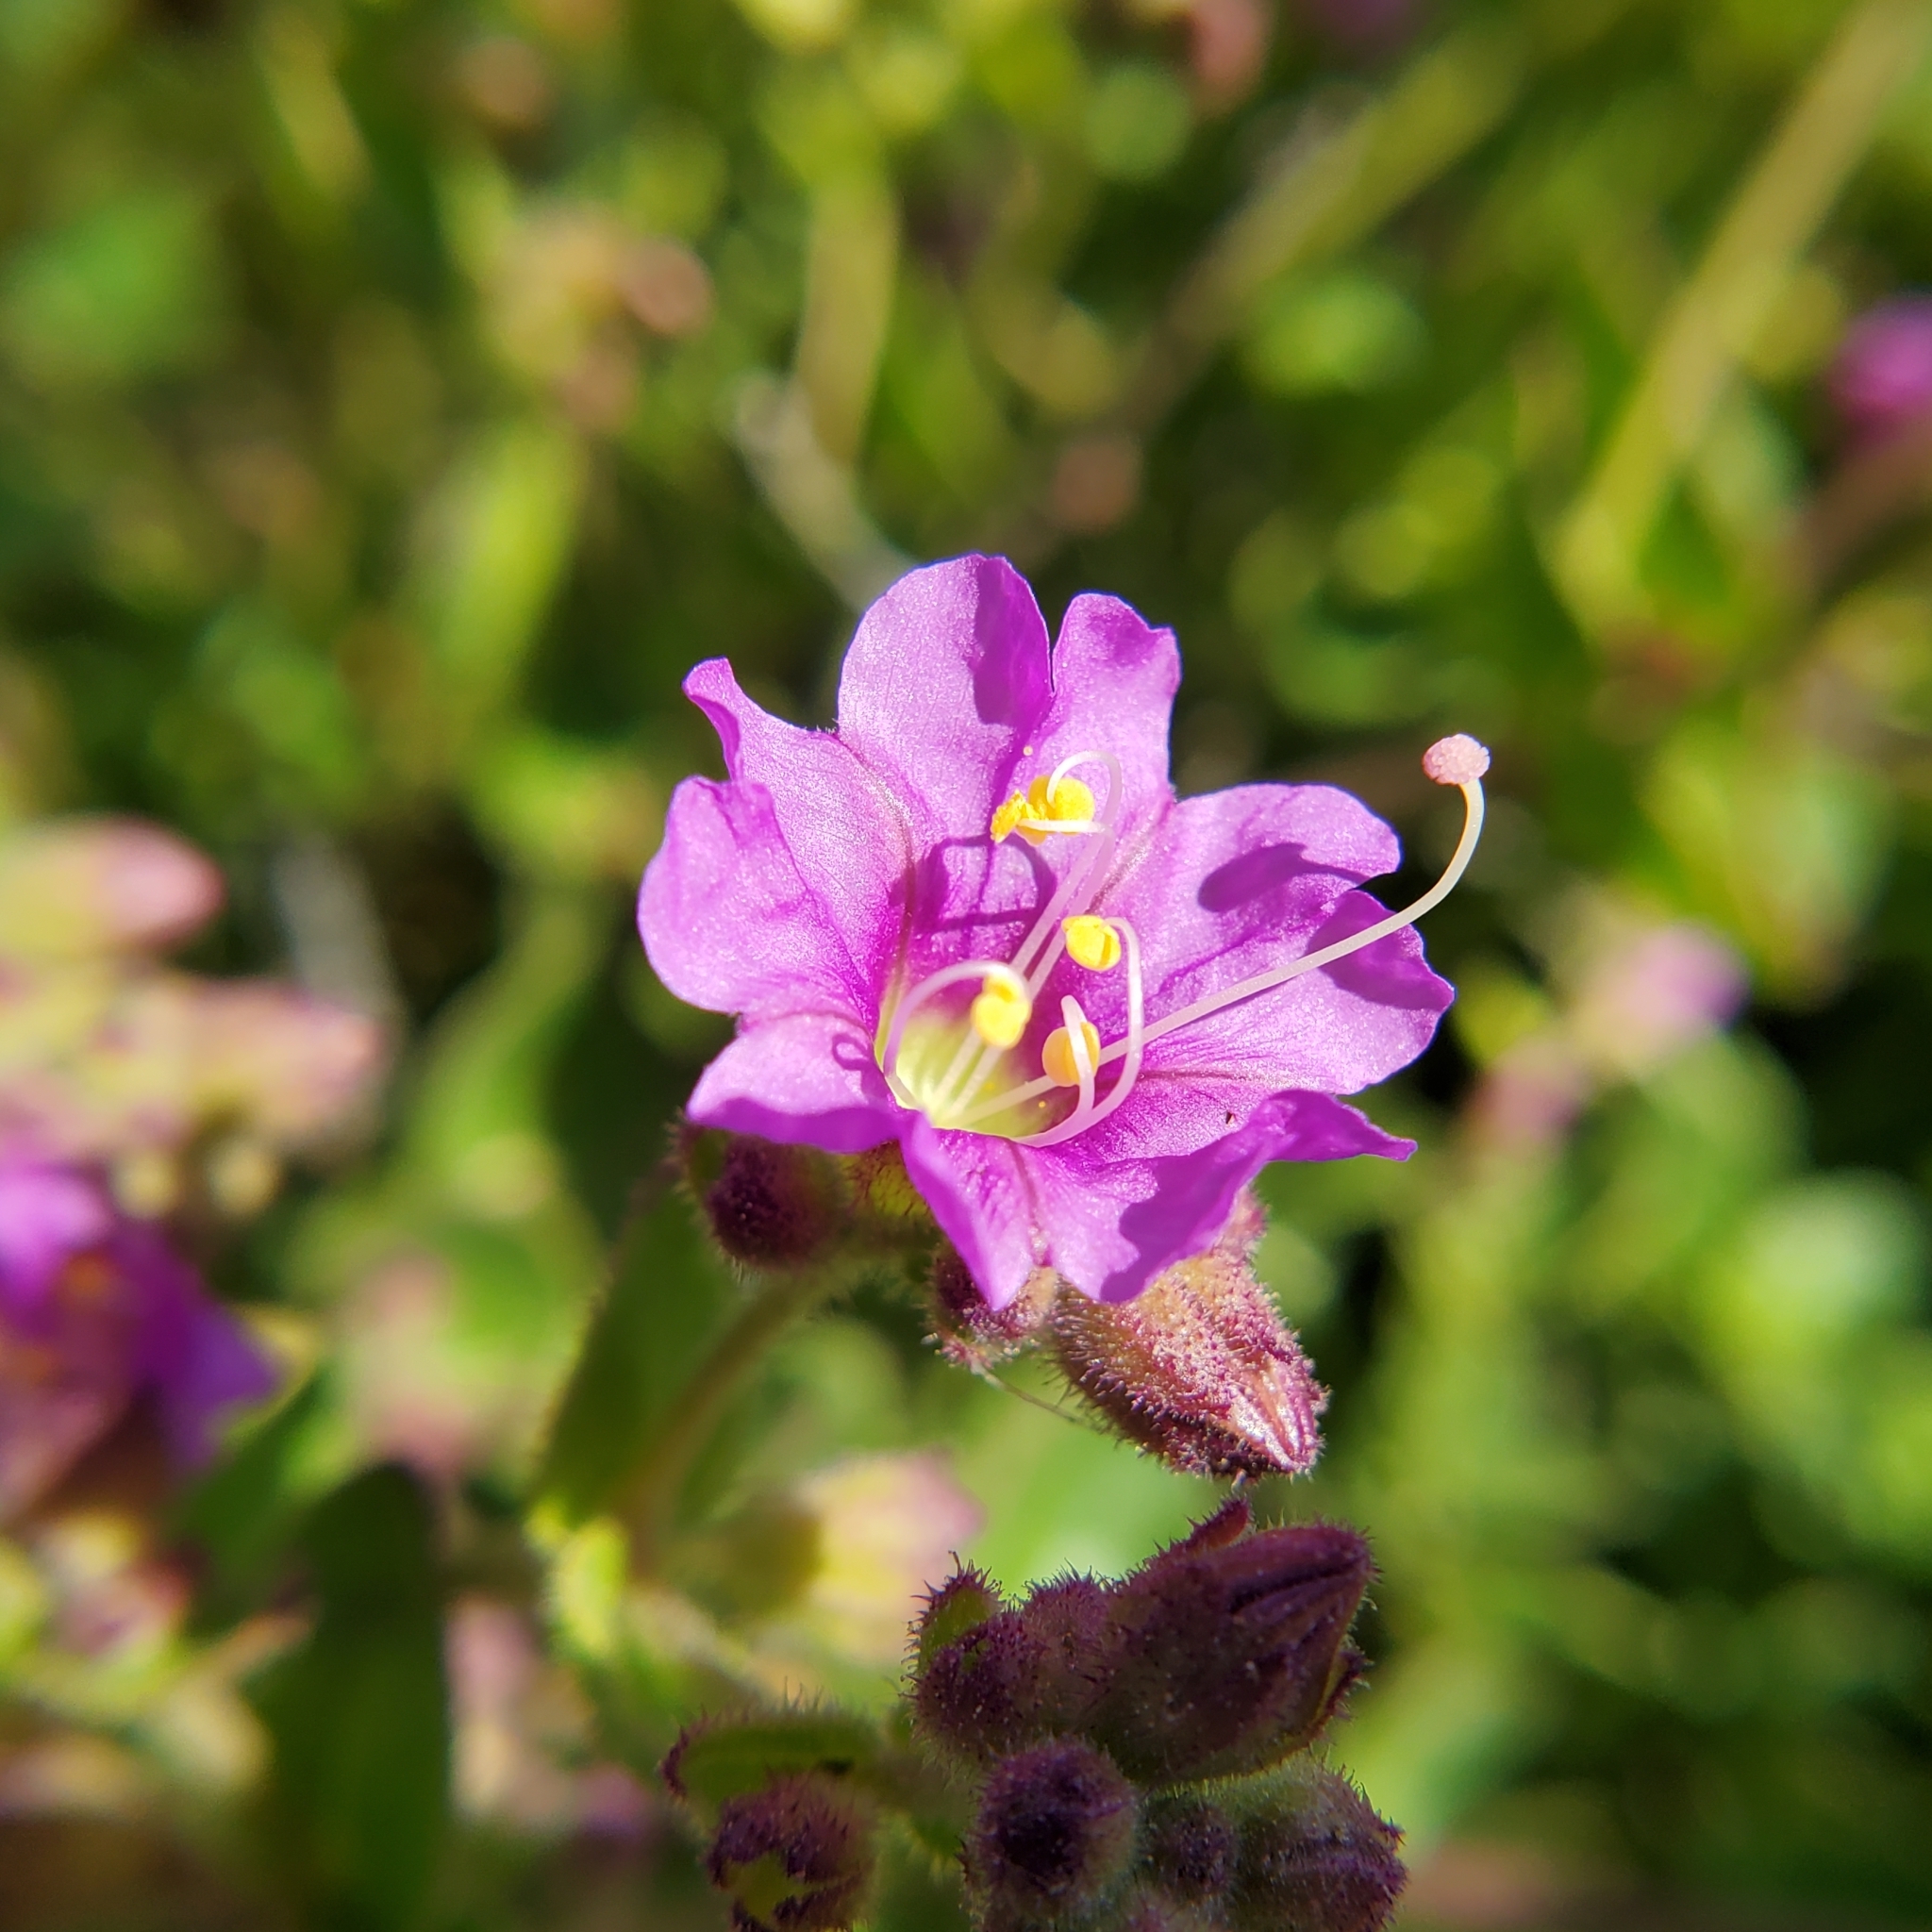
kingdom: Plantae
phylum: Tracheophyta
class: Magnoliopsida
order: Caryophyllales
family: Nyctaginaceae
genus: Mirabilis
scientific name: Mirabilis laevis
